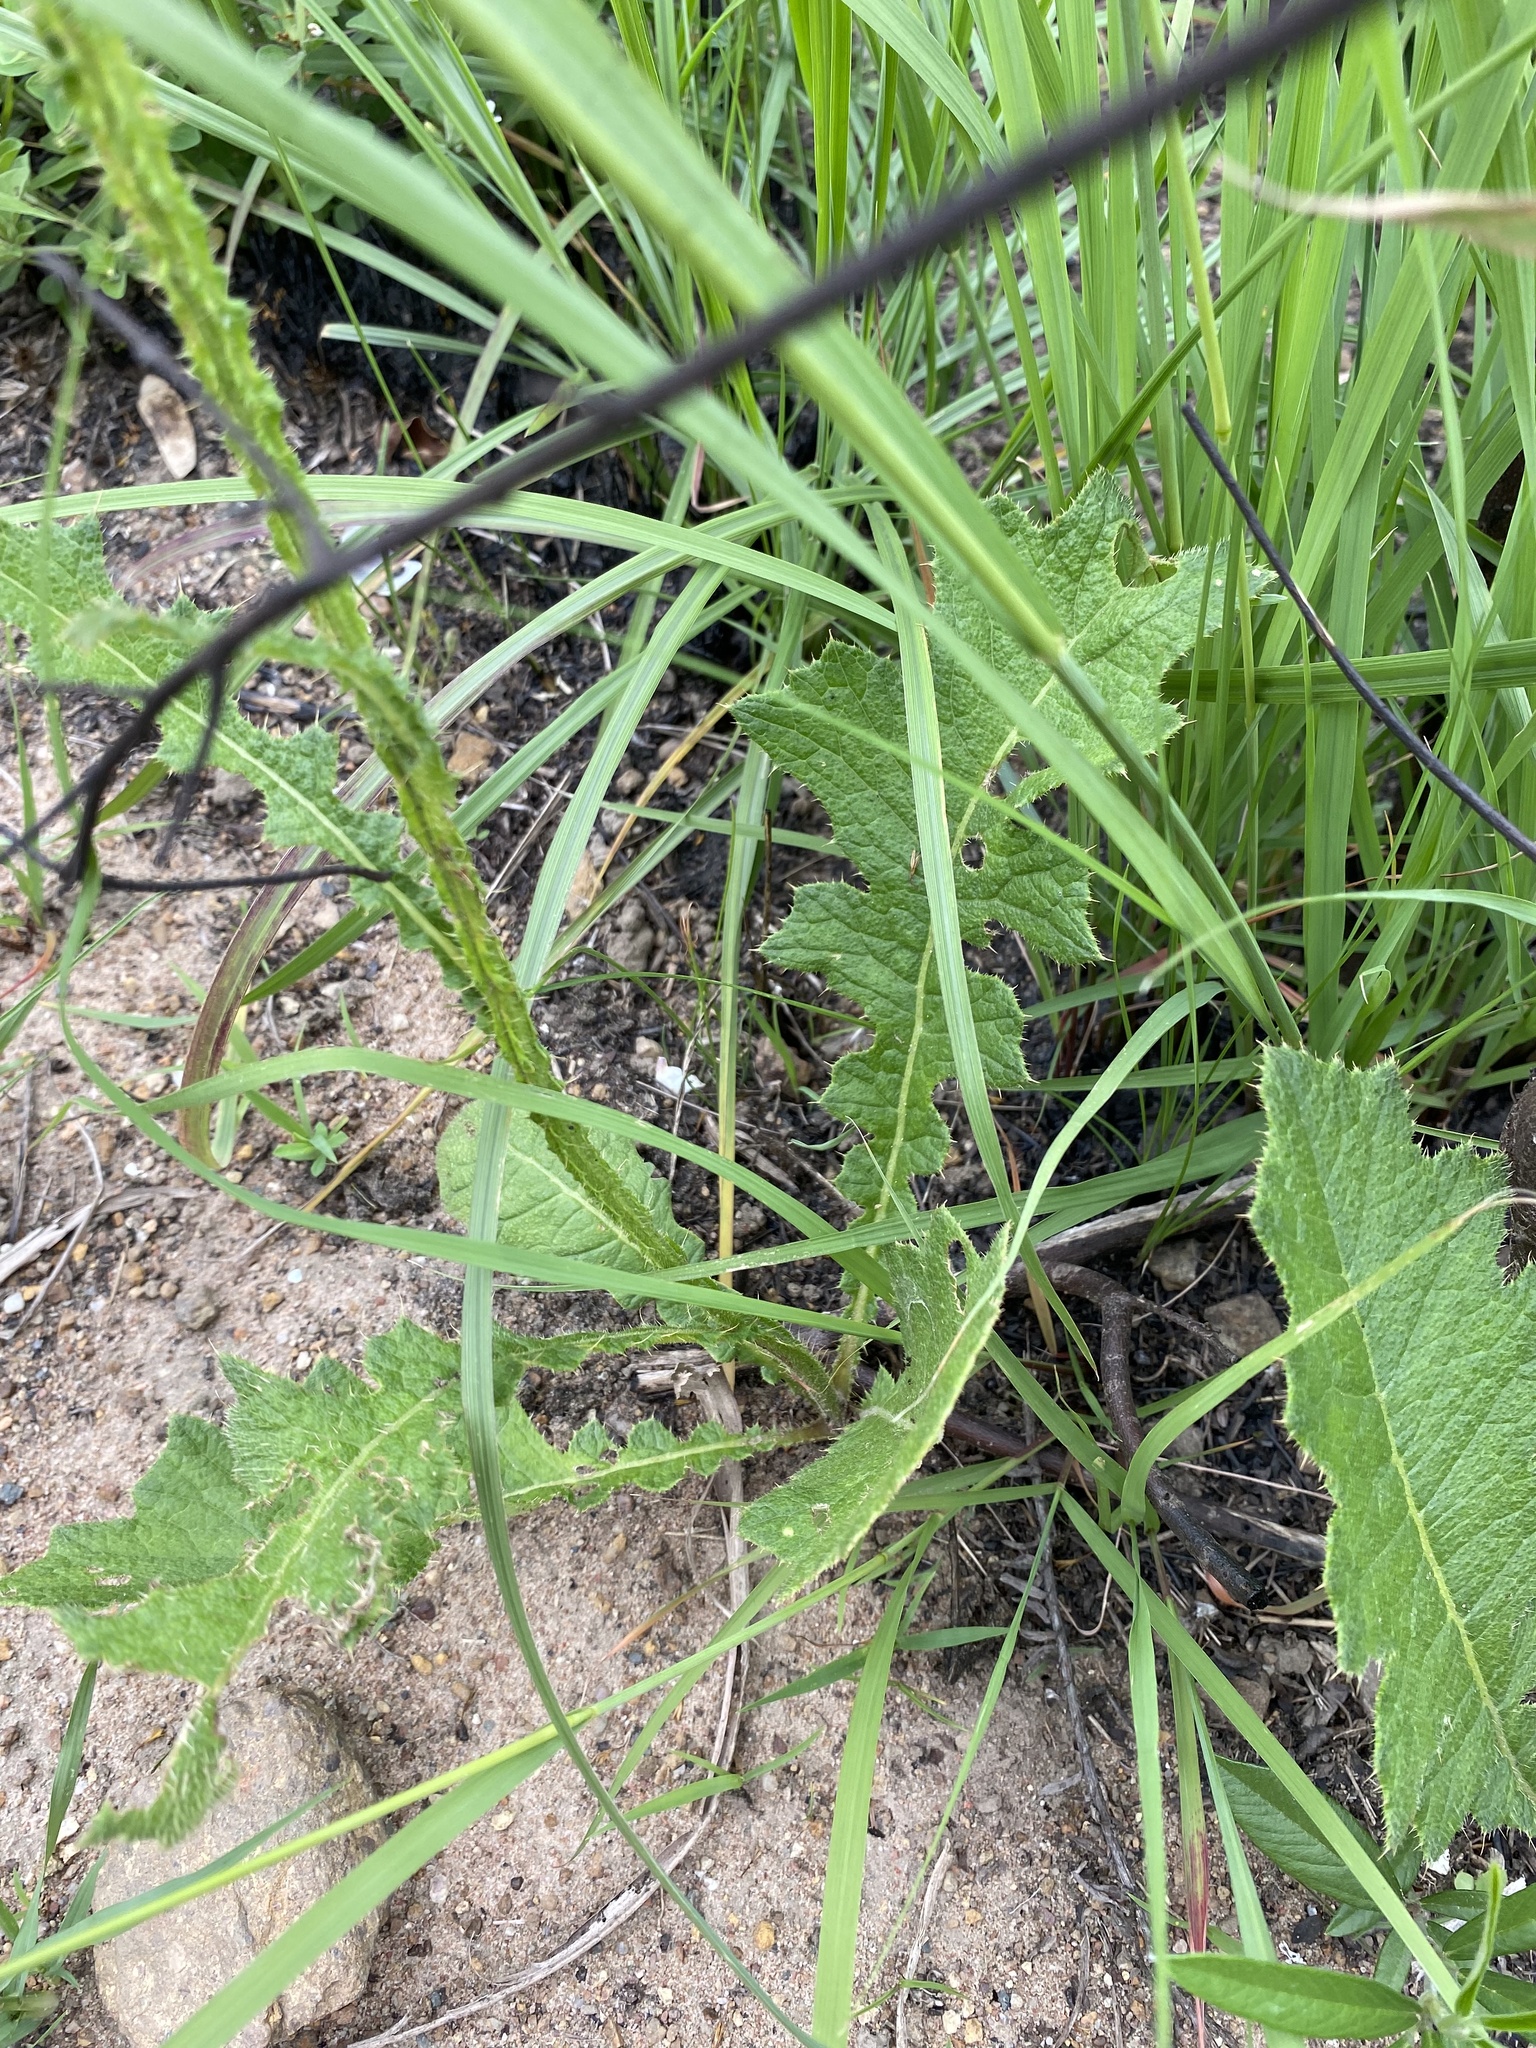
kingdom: Plantae
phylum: Tracheophyta
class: Magnoliopsida
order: Asterales
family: Asteraceae
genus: Berkheya
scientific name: Berkheya umbellata
